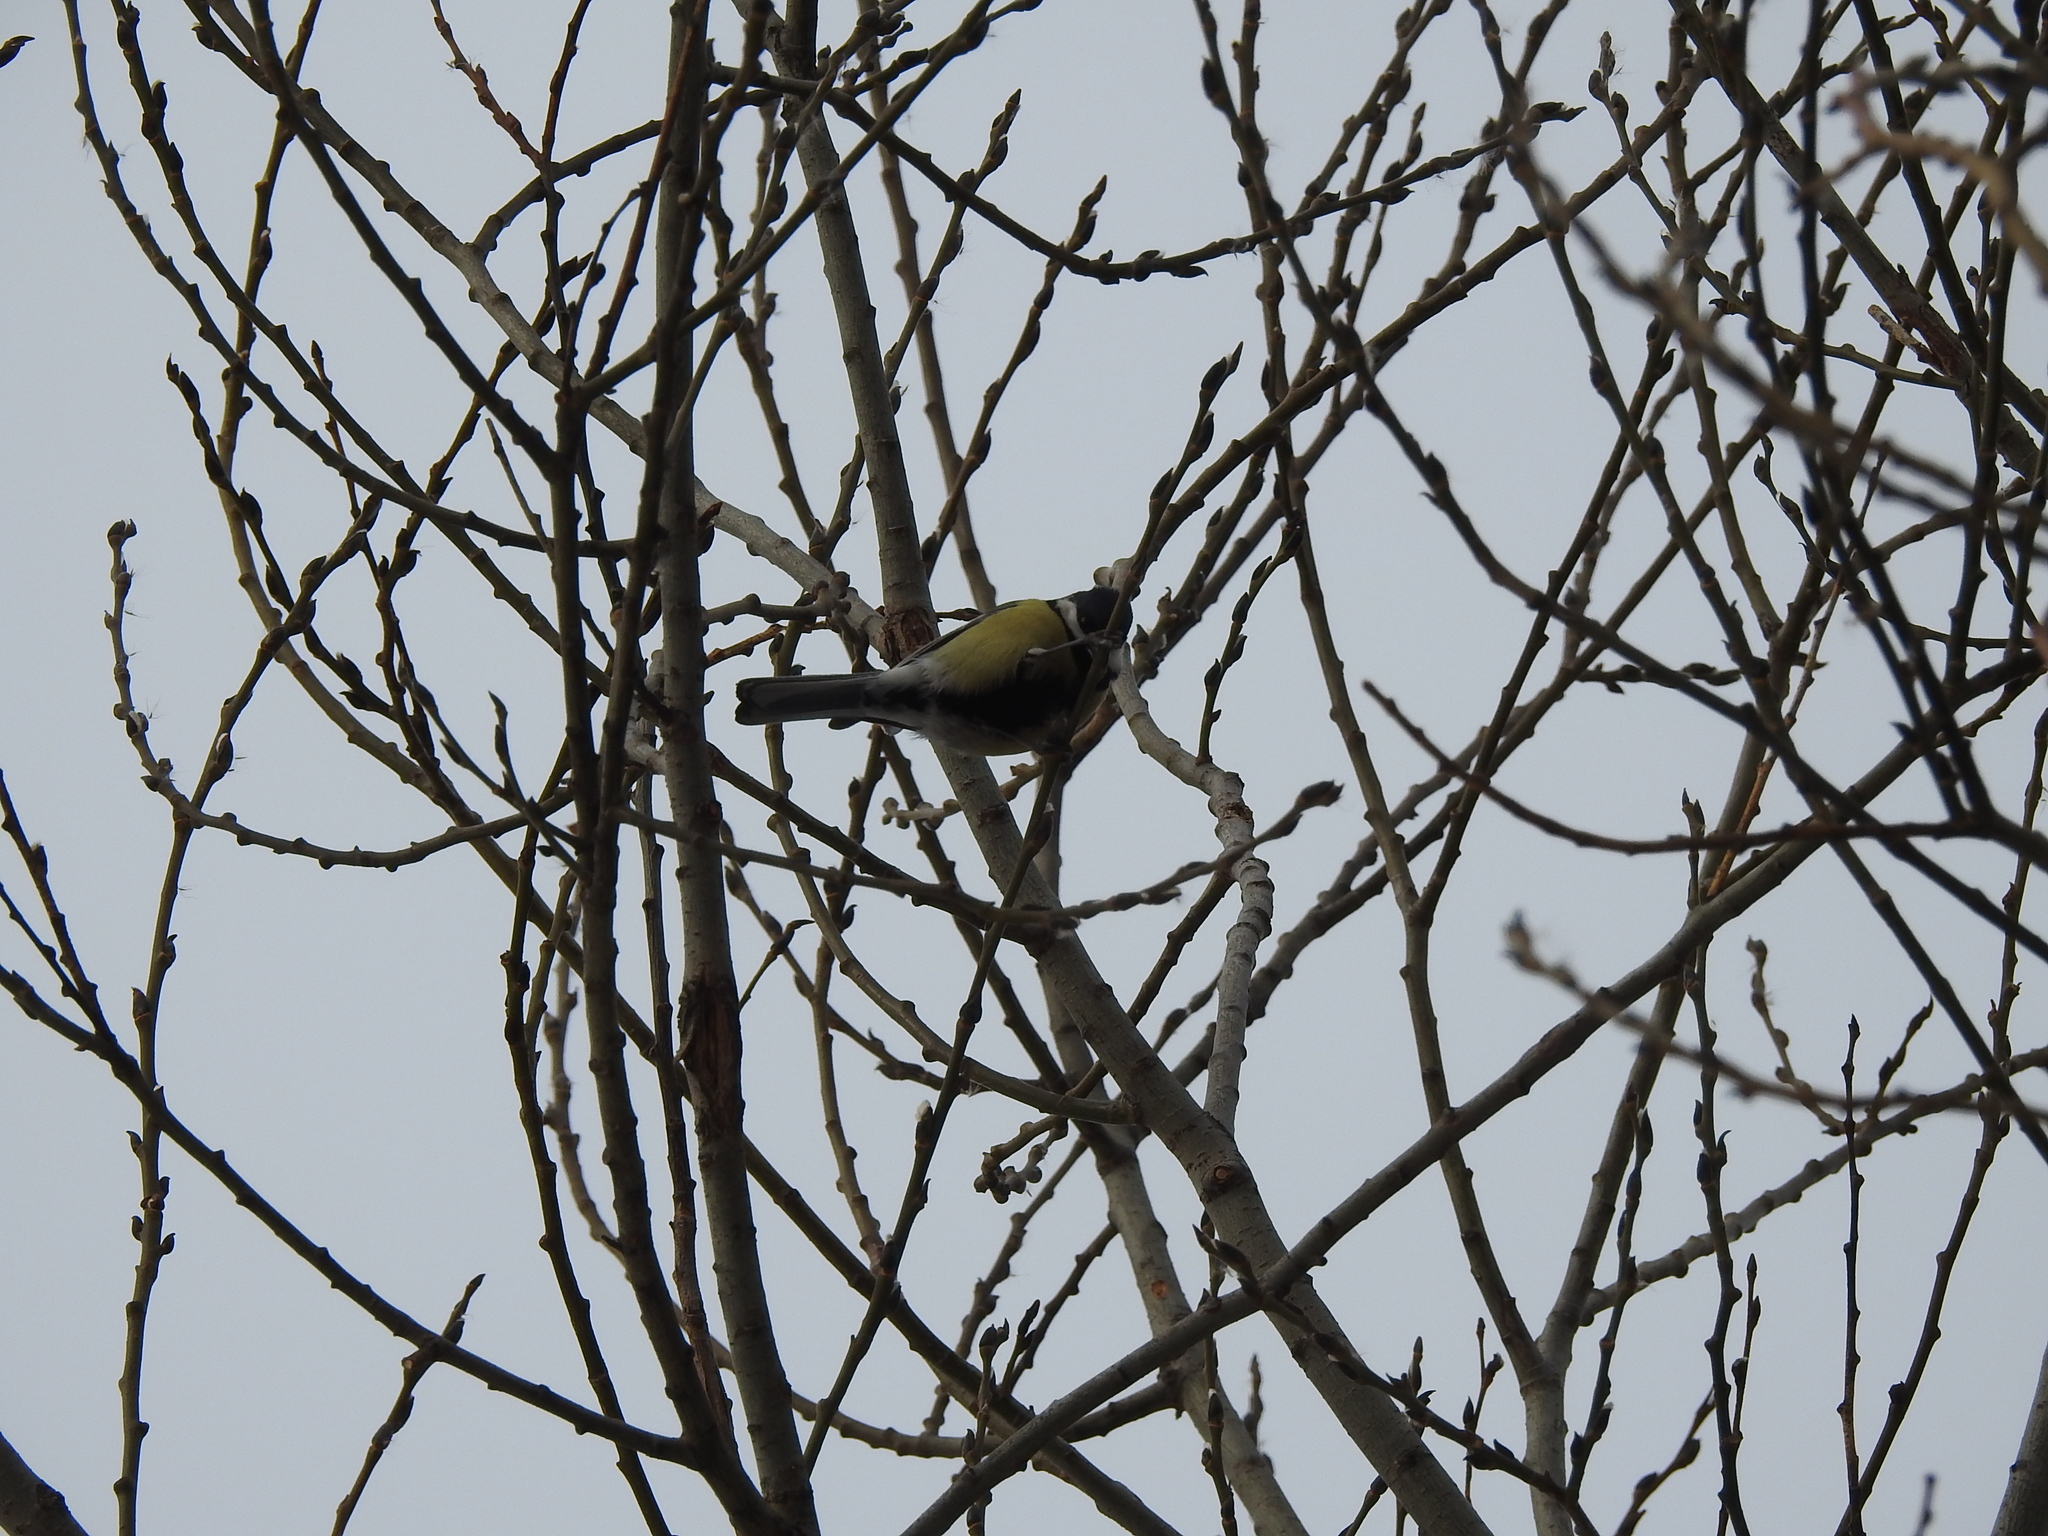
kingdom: Animalia
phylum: Chordata
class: Aves
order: Passeriformes
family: Paridae
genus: Parus
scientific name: Parus major
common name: Great tit
